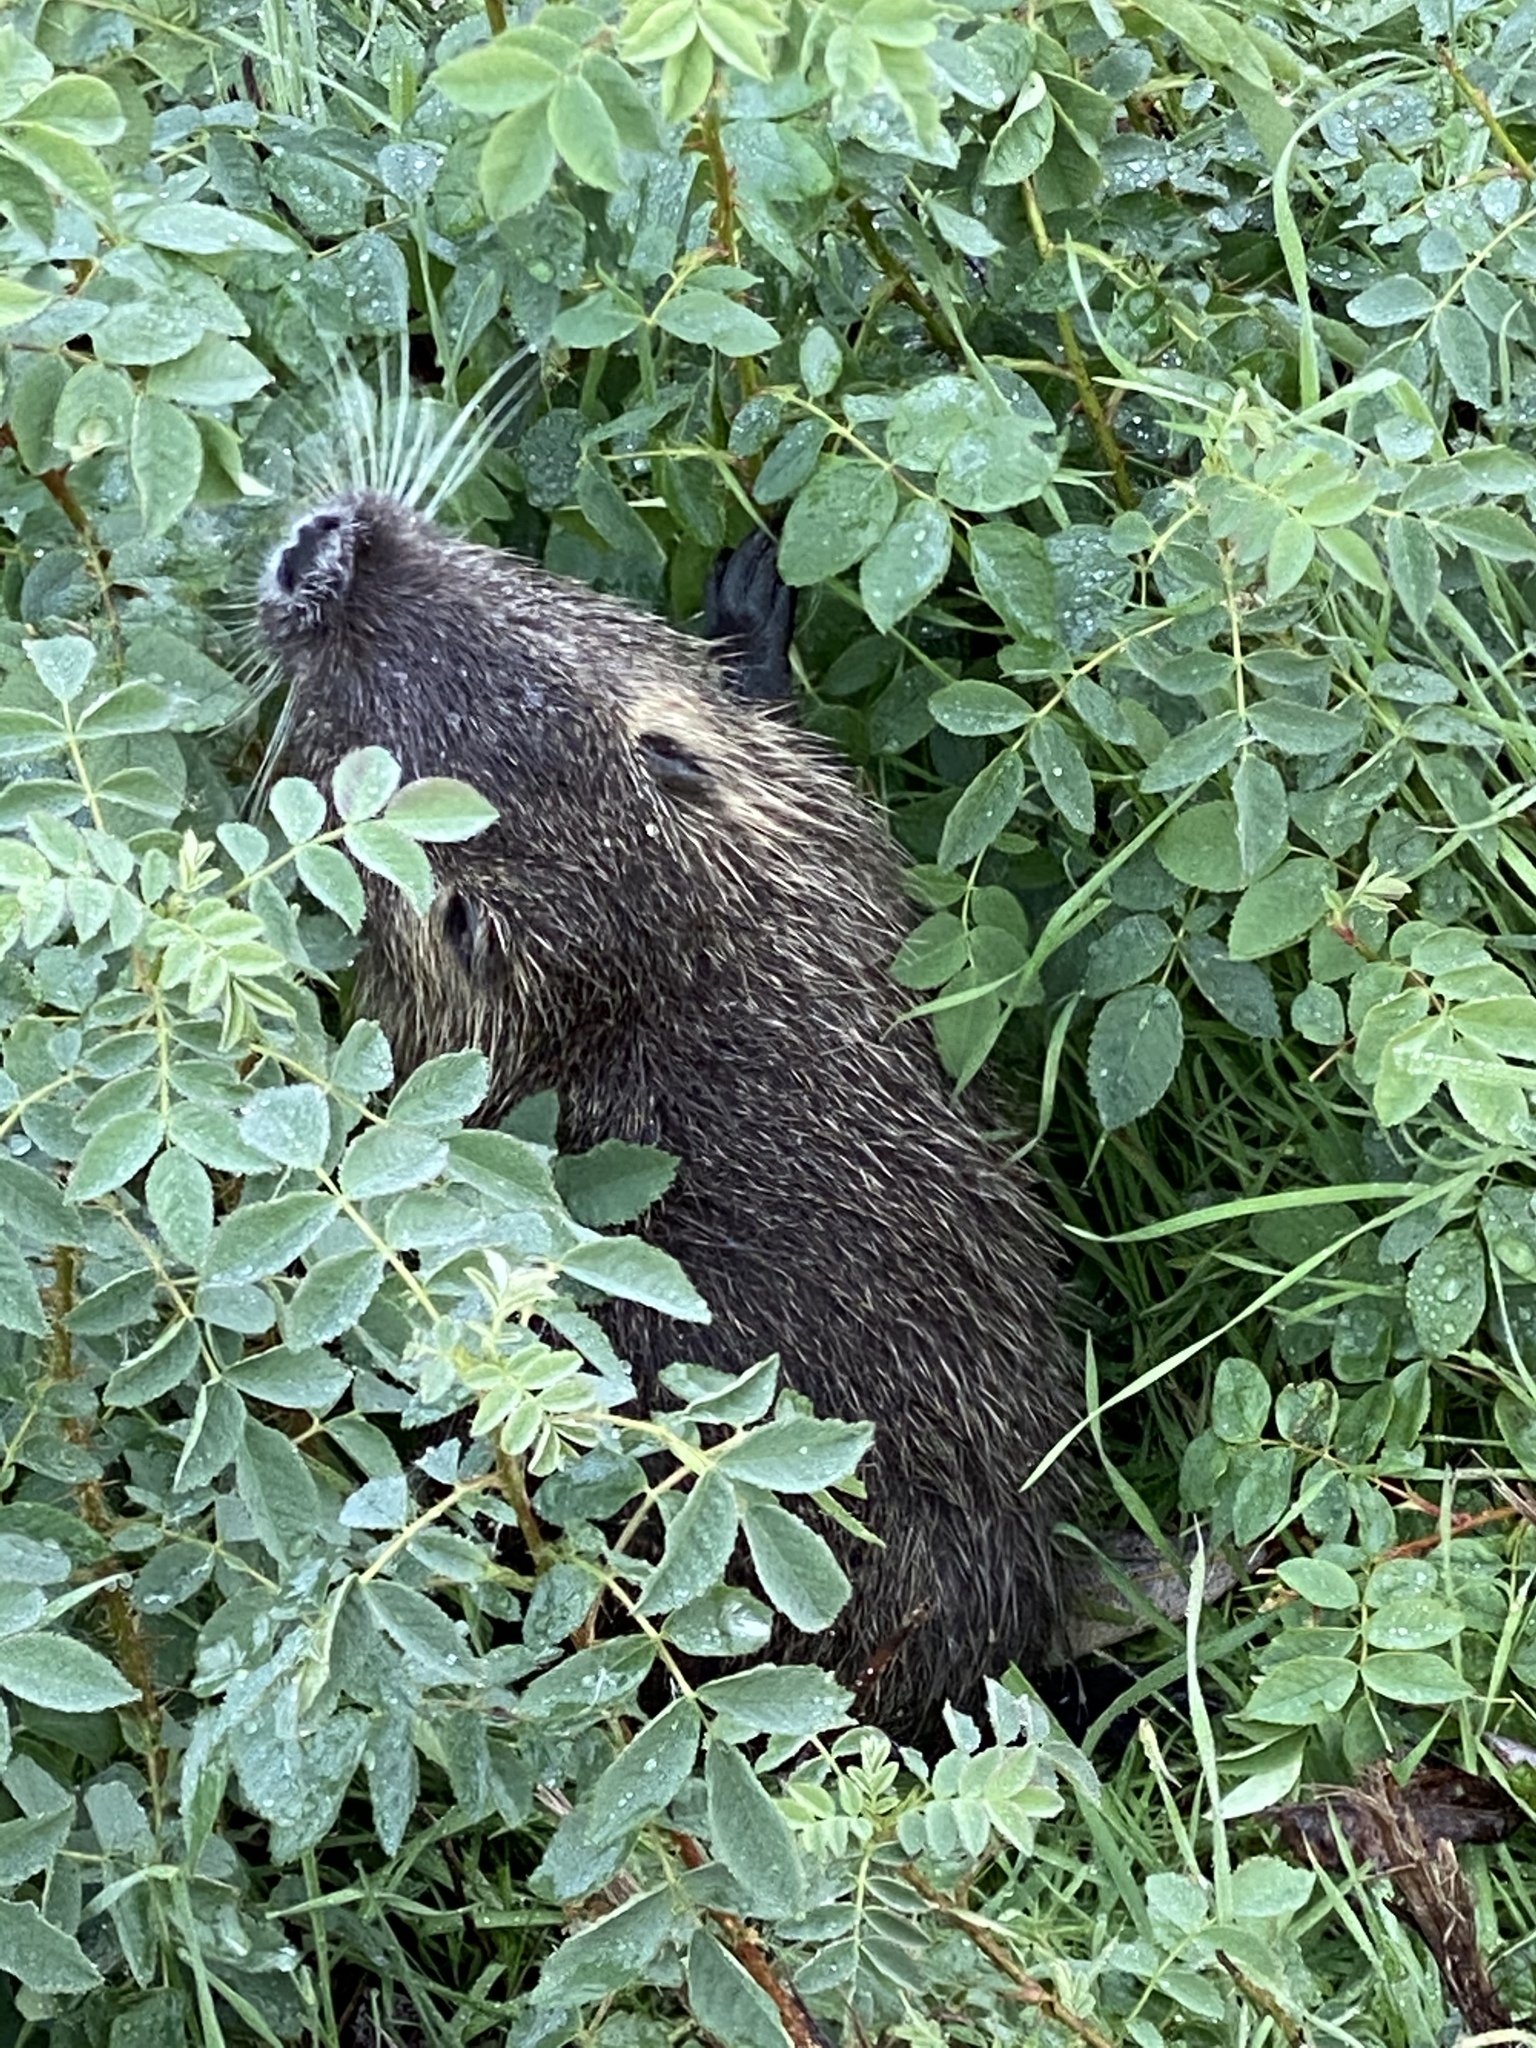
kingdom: Animalia
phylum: Chordata
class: Mammalia
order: Rodentia
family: Myocastoridae
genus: Myocastor
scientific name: Myocastor coypus
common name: Coypu
